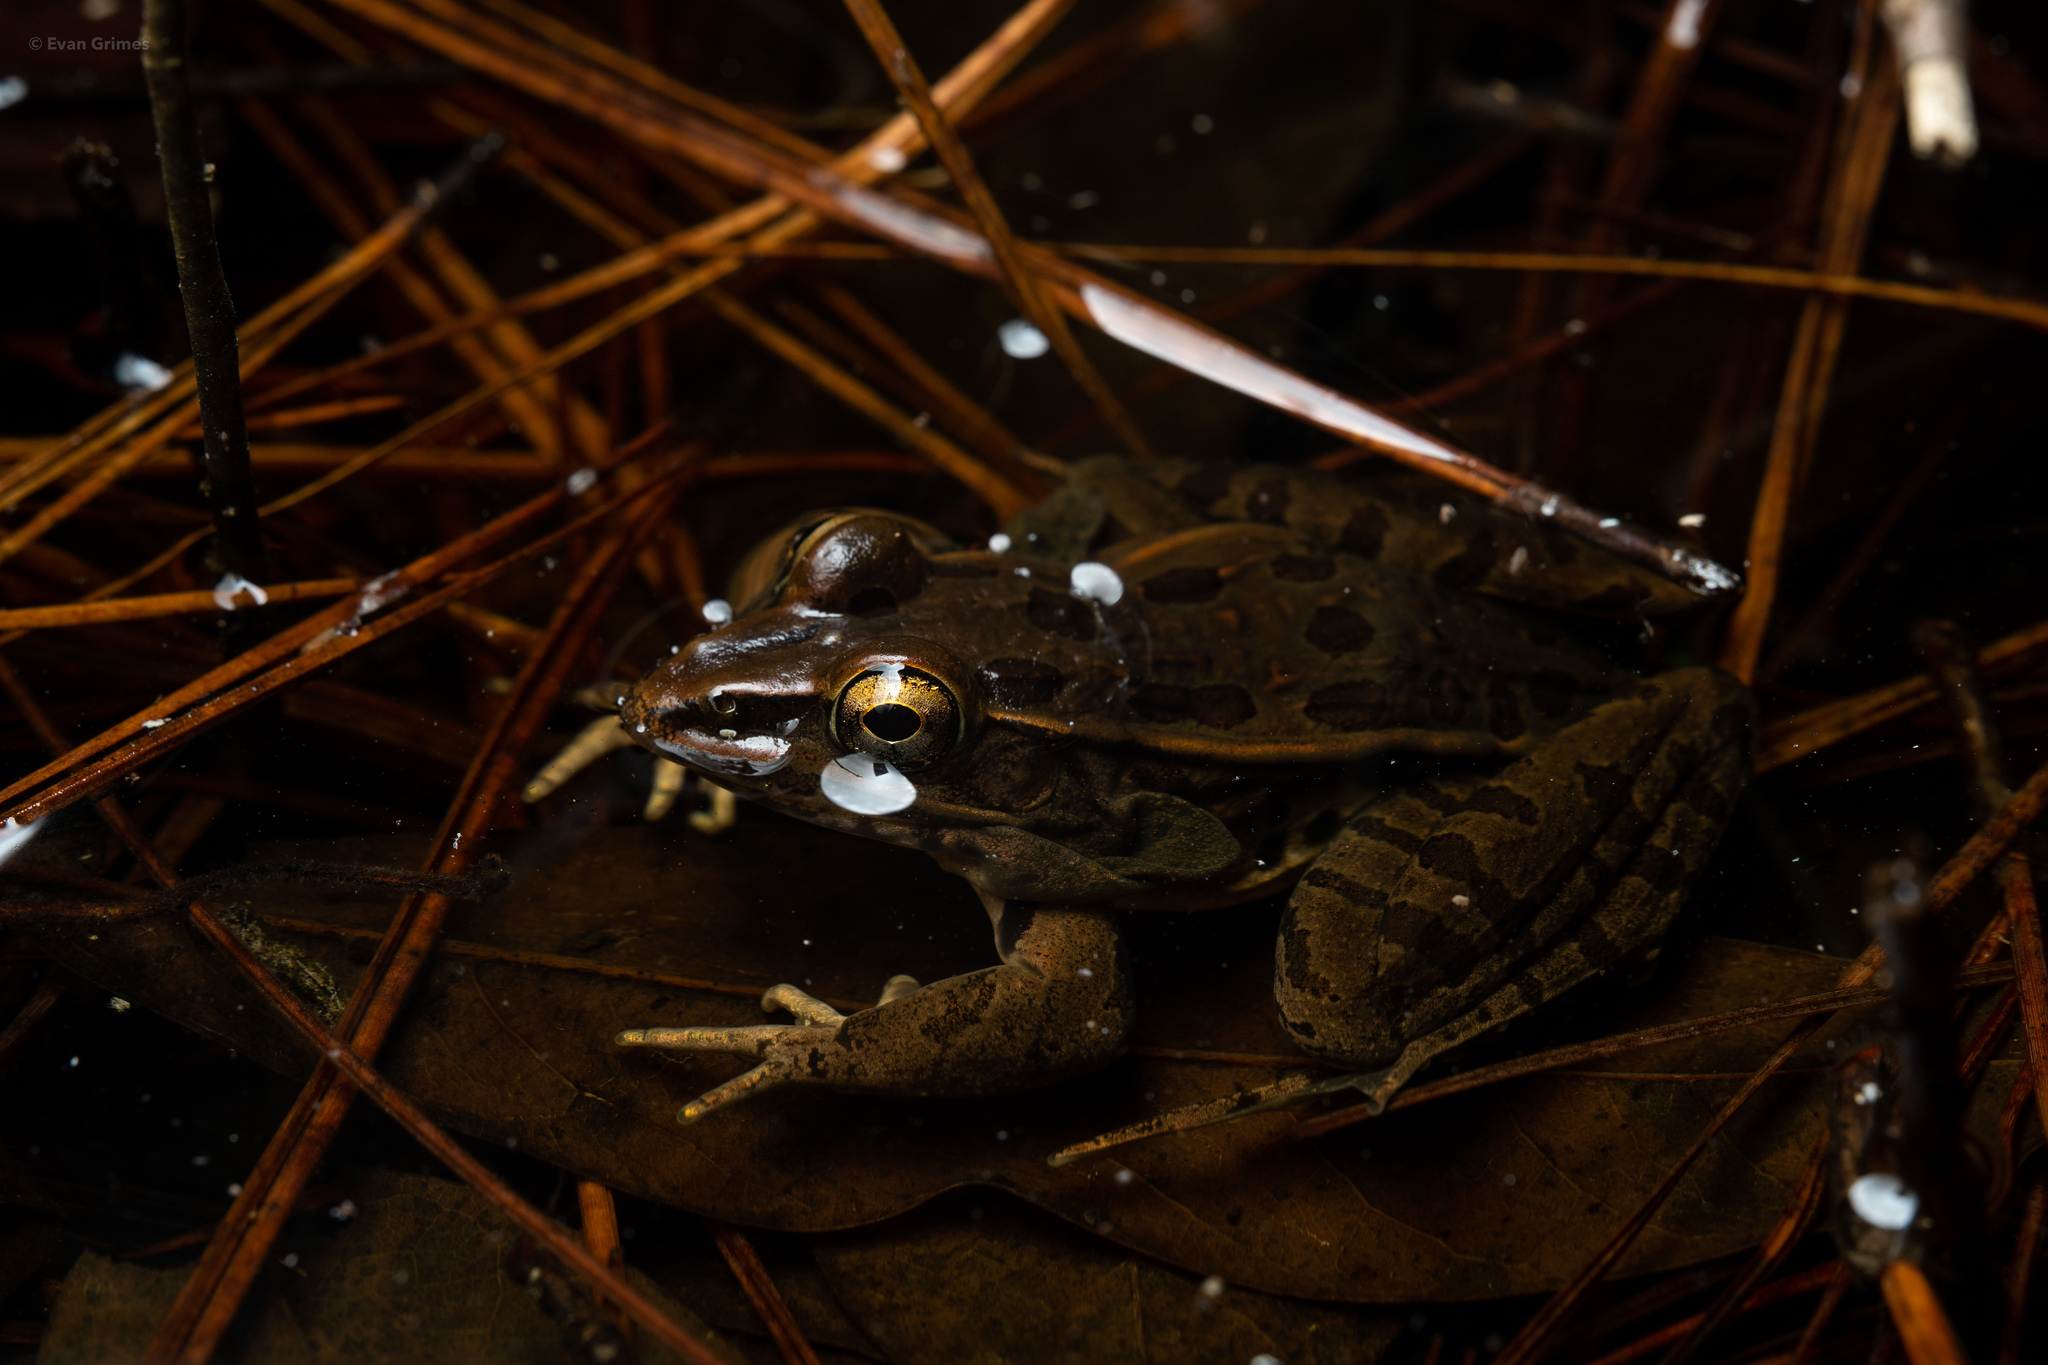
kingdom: Animalia
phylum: Chordata
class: Amphibia
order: Anura
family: Ranidae
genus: Lithobates
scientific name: Lithobates sphenocephalus
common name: Southern leopard frog
